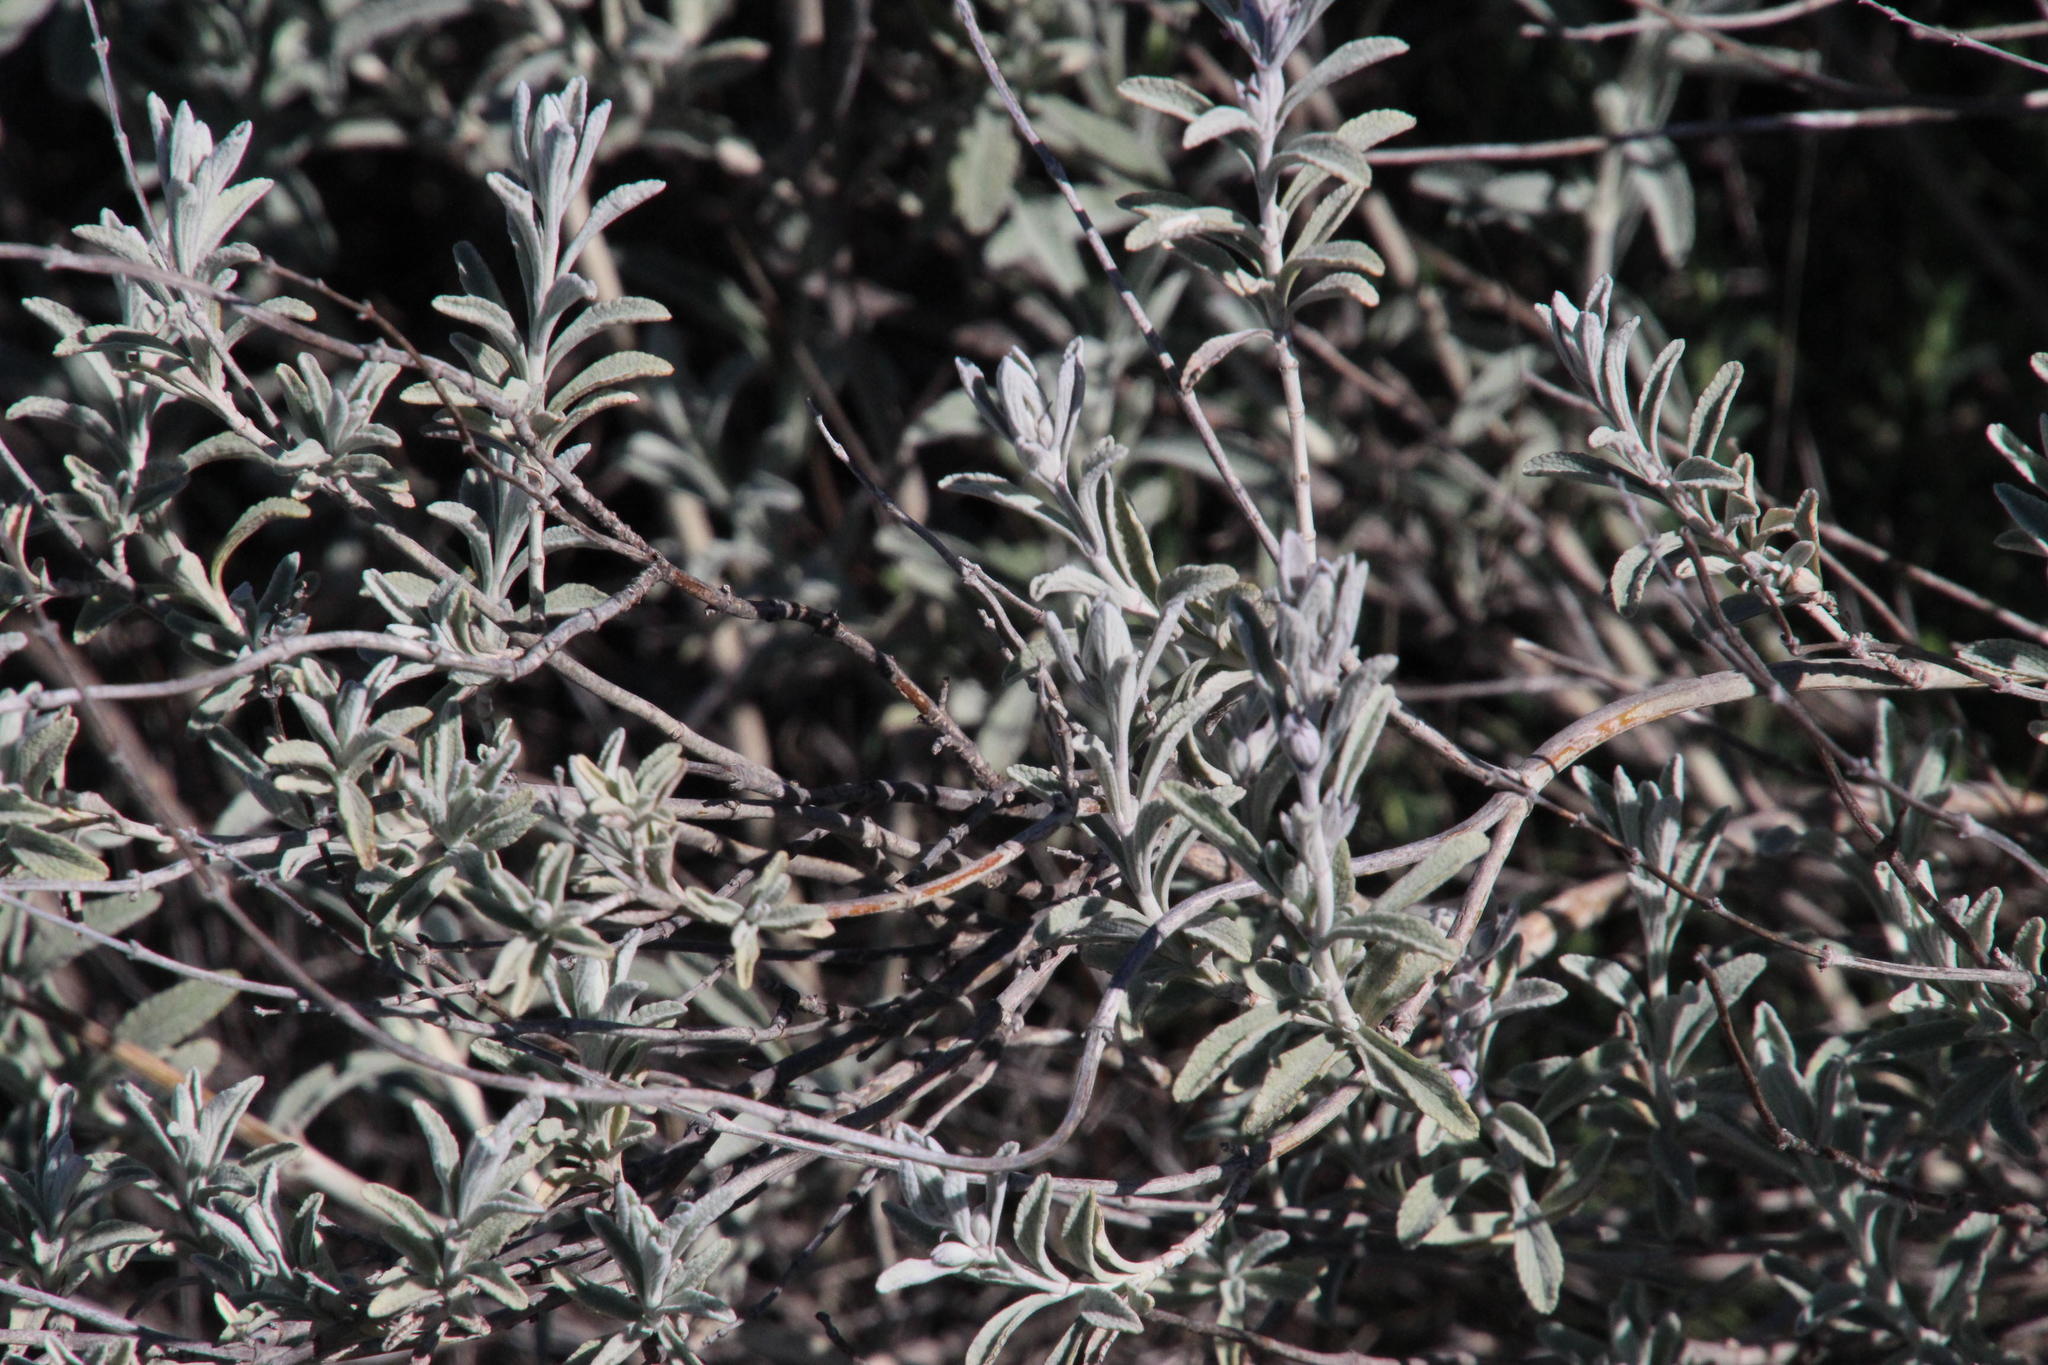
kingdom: Plantae
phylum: Tracheophyta
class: Magnoliopsida
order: Lamiales
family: Lamiaceae
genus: Stachys
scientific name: Stachys rugosa
